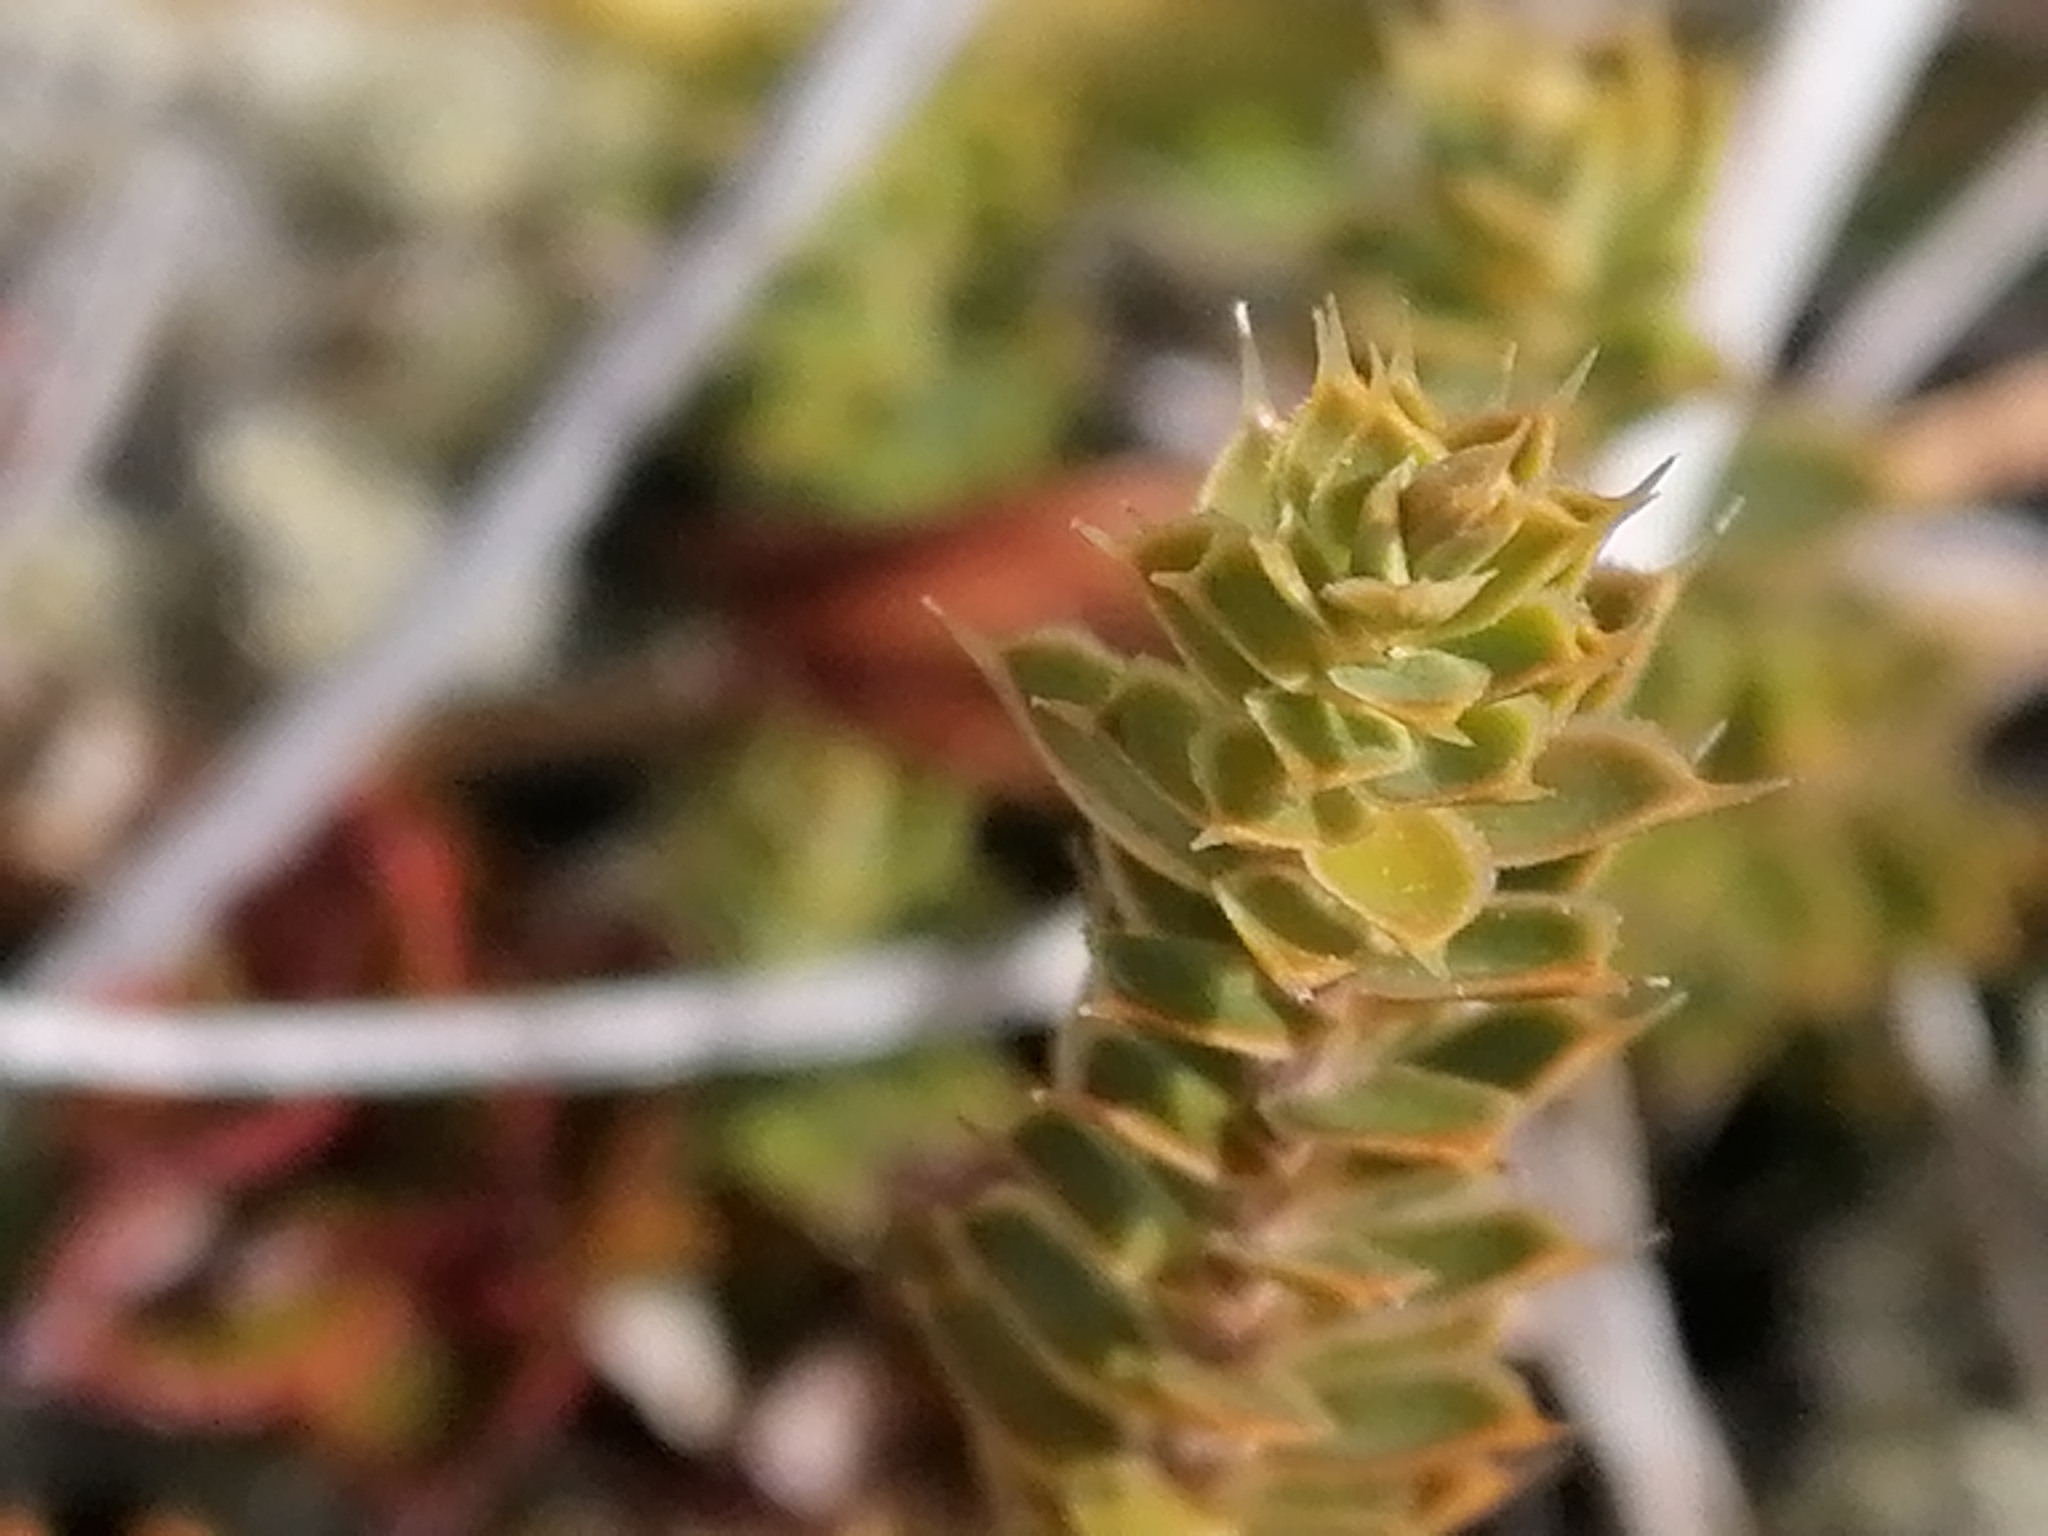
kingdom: Plantae
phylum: Tracheophyta
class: Magnoliopsida
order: Ericales
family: Ericaceae
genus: Styphelia
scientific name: Styphelia nesophila
